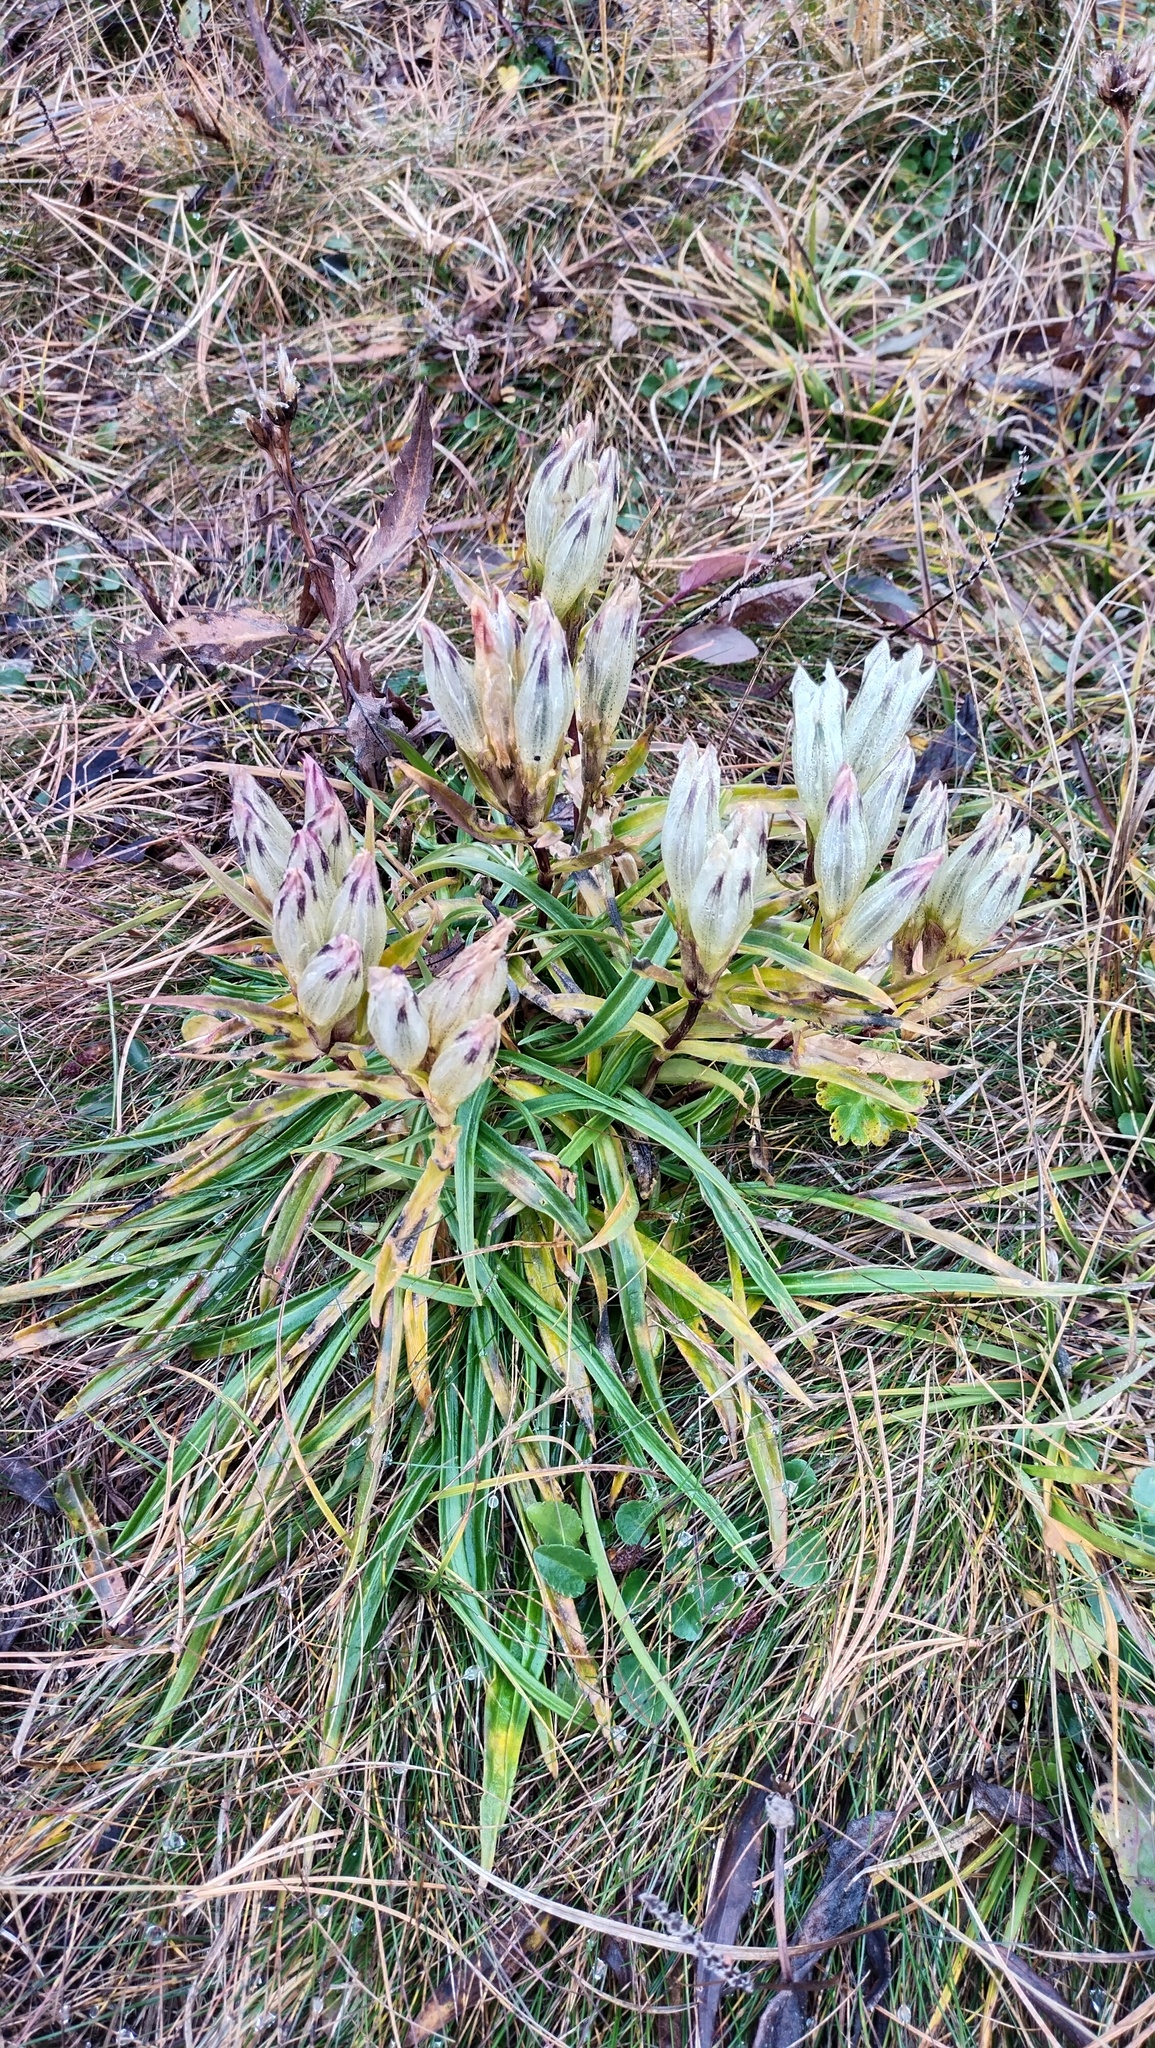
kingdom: Plantae
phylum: Tracheophyta
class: Magnoliopsida
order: Gentianales
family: Gentianaceae
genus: Gentiana
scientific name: Gentiana algida
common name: Arctic gentian
